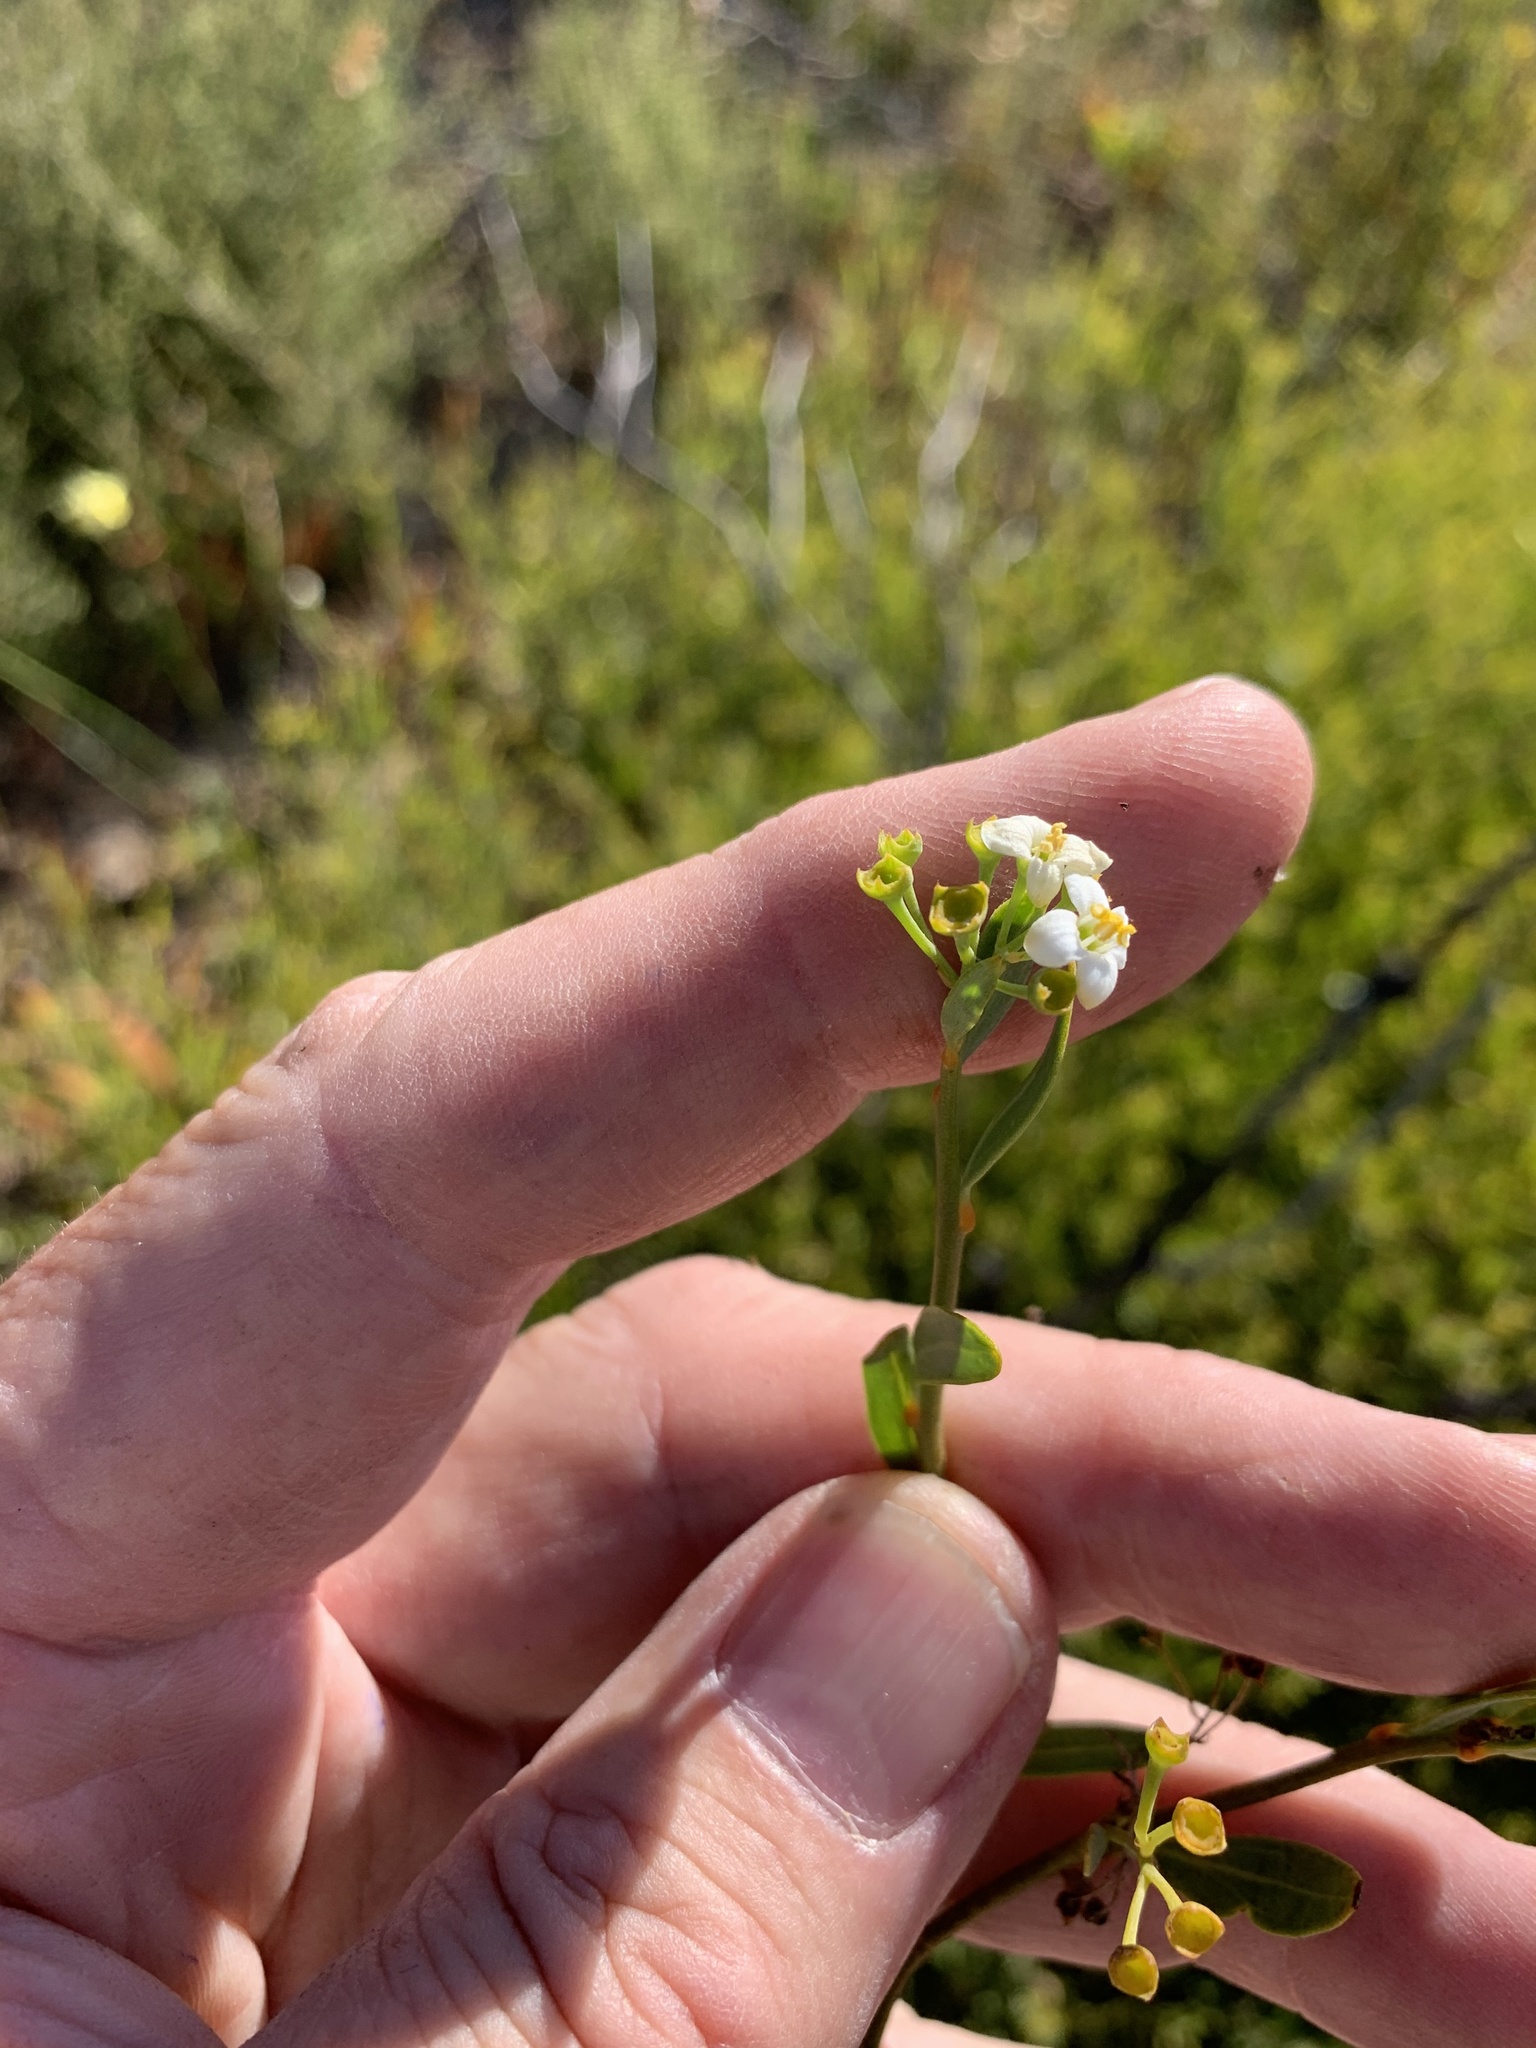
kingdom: Plantae
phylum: Tracheophyta
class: Magnoliopsida
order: Solanales
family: Montiniaceae
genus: Montinia
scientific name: Montinia caryophyllacea
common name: Wild clove-bush
